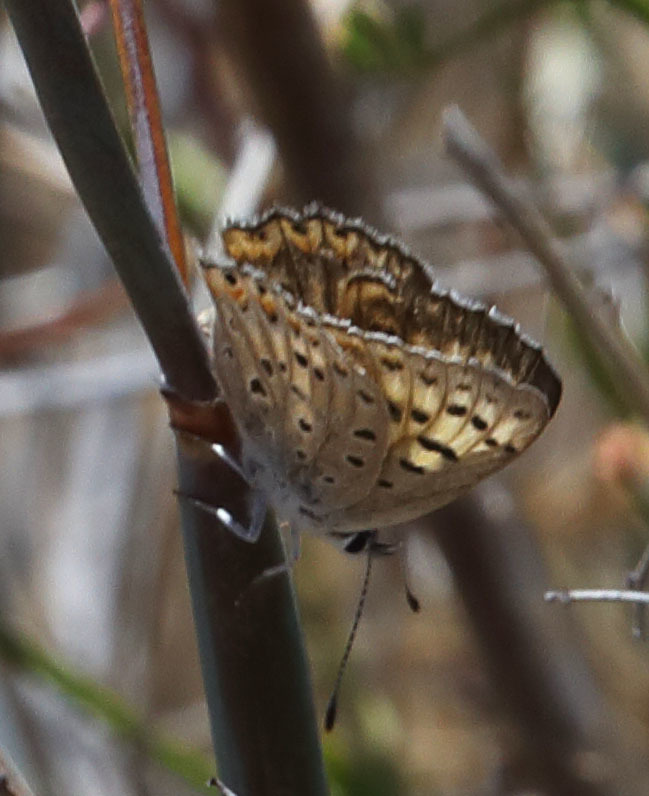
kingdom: Animalia
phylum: Arthropoda
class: Insecta
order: Lepidoptera
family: Lycaenidae
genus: Tharsalea
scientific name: Tharsalea gorgon
